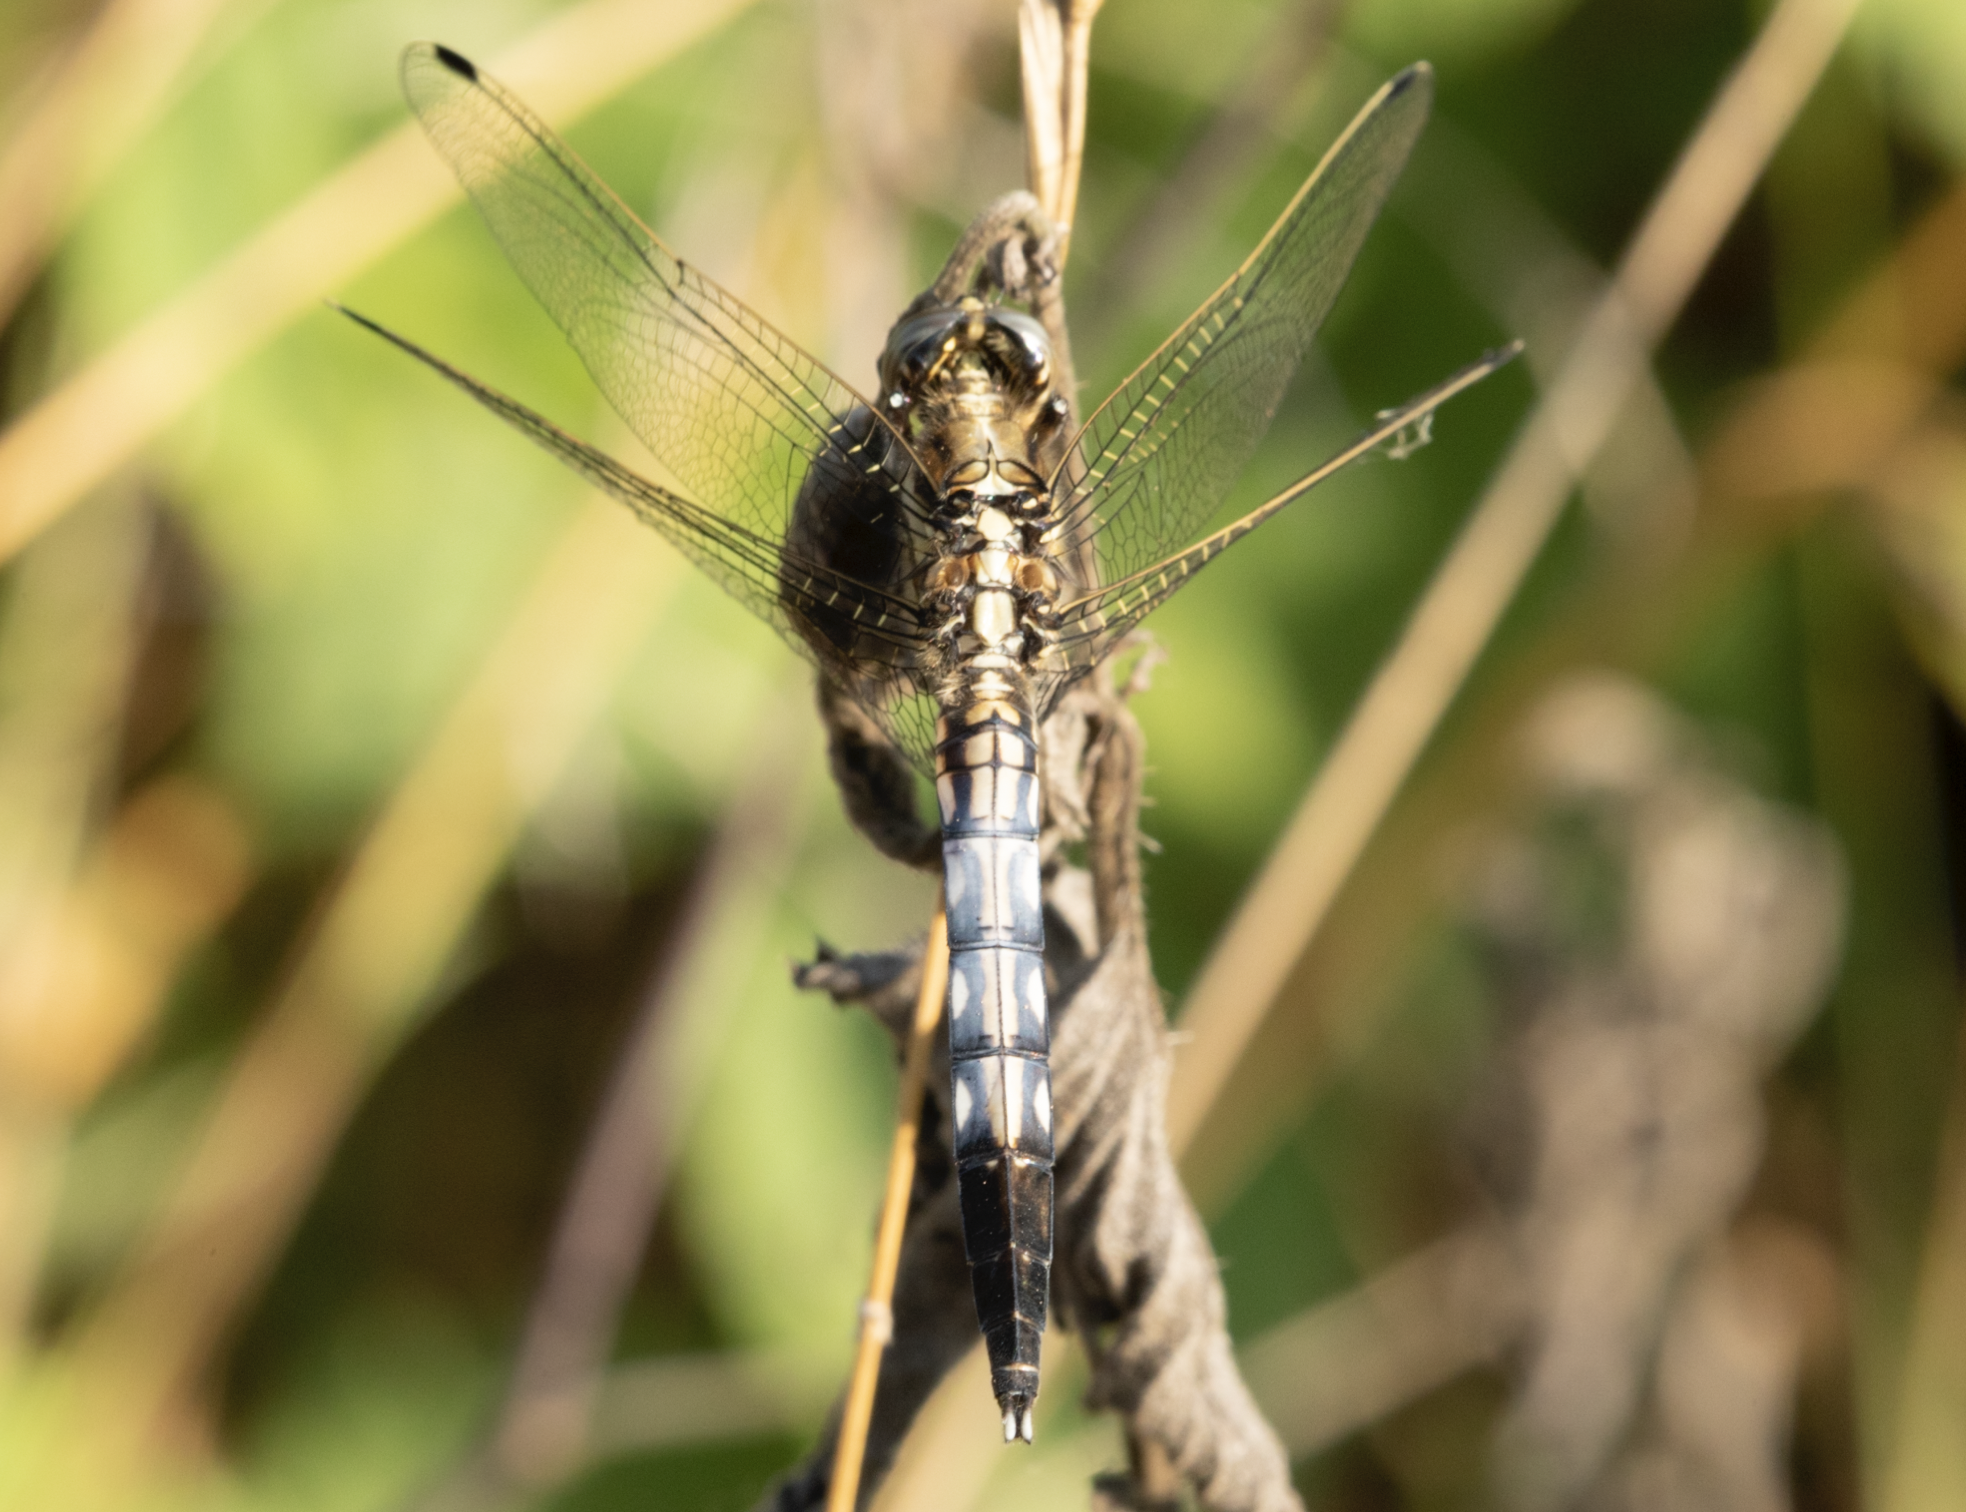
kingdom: Animalia
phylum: Arthropoda
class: Insecta
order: Odonata
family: Libellulidae
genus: Orthetrum
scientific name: Orthetrum albistylum
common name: White-tailed skimmer
